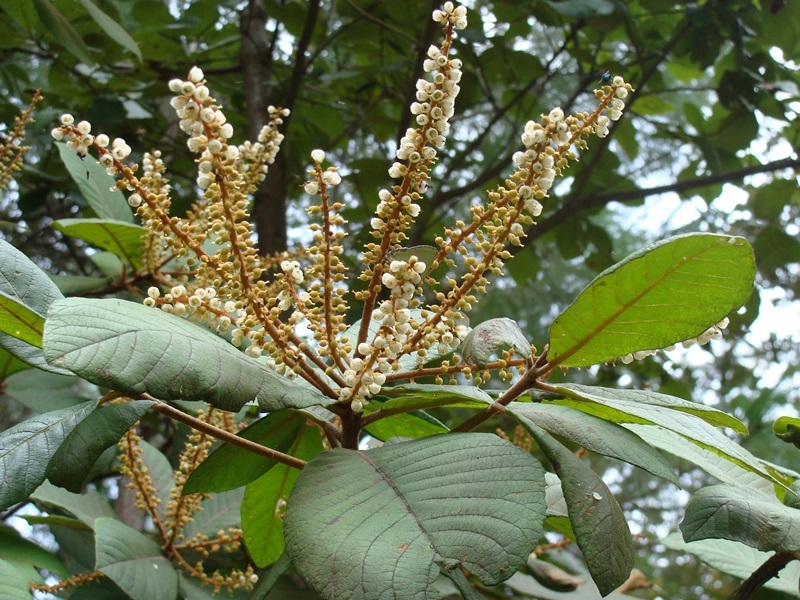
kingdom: Plantae
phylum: Tracheophyta
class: Magnoliopsida
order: Ericales
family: Clethraceae
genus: Clethra
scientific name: Clethra mexicana
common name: Nance macho
